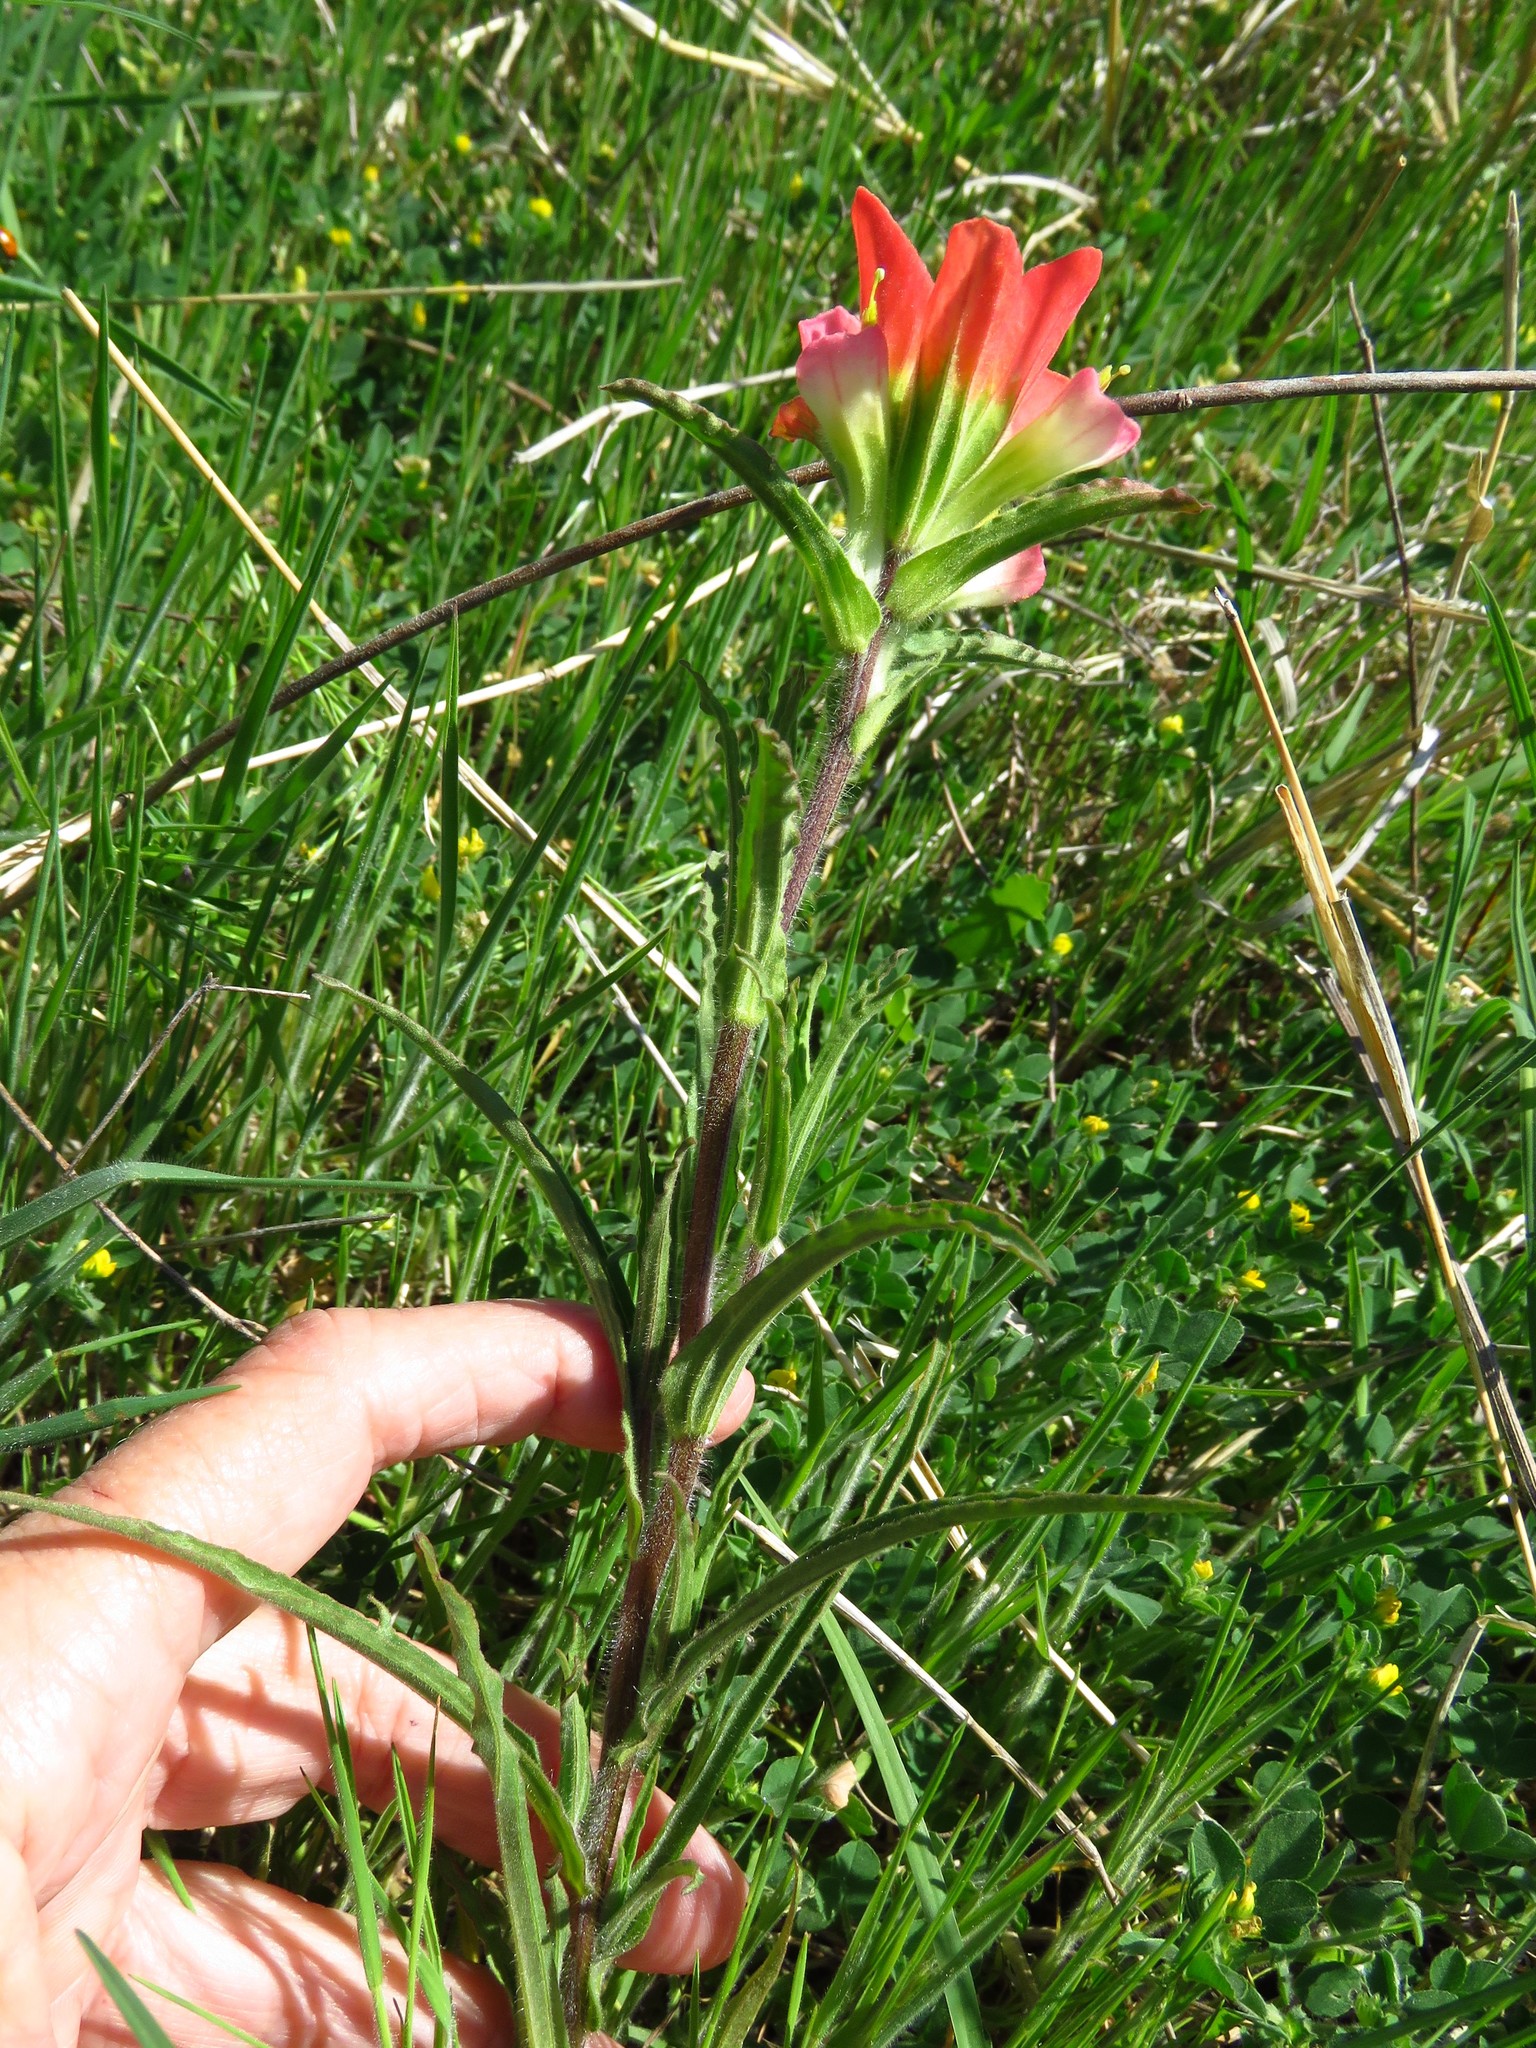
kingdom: Plantae
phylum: Tracheophyta
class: Magnoliopsida
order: Lamiales
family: Orobanchaceae
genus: Castilleja
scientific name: Castilleja indivisa
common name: Texas paintbrush
